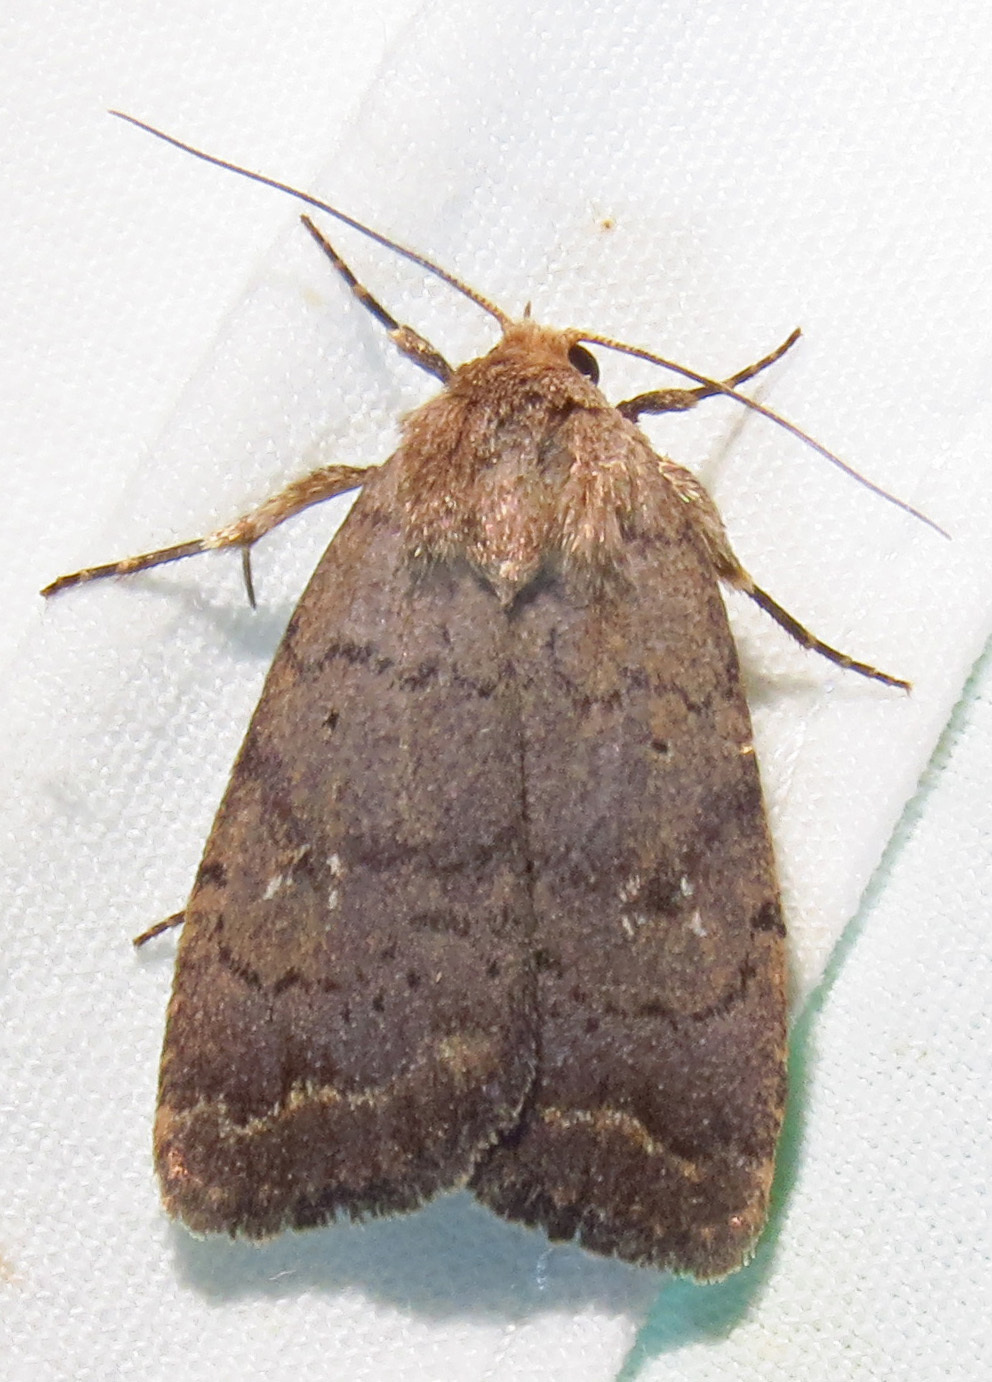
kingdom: Animalia
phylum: Arthropoda
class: Insecta
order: Lepidoptera
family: Noctuidae
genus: Athetis
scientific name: Athetis tarda
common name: Slowpoke moth
